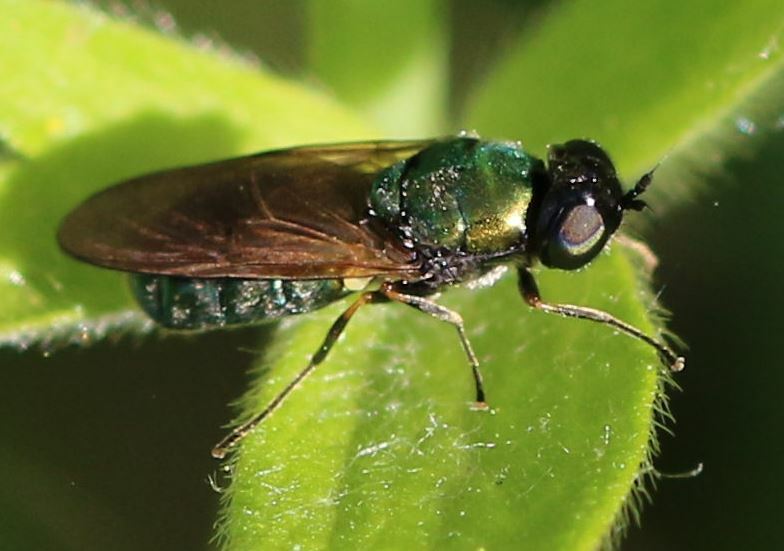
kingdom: Animalia
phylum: Arthropoda
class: Insecta
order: Diptera
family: Stratiomyidae
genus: Chloromyia
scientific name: Chloromyia formosa
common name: Soldier fly
